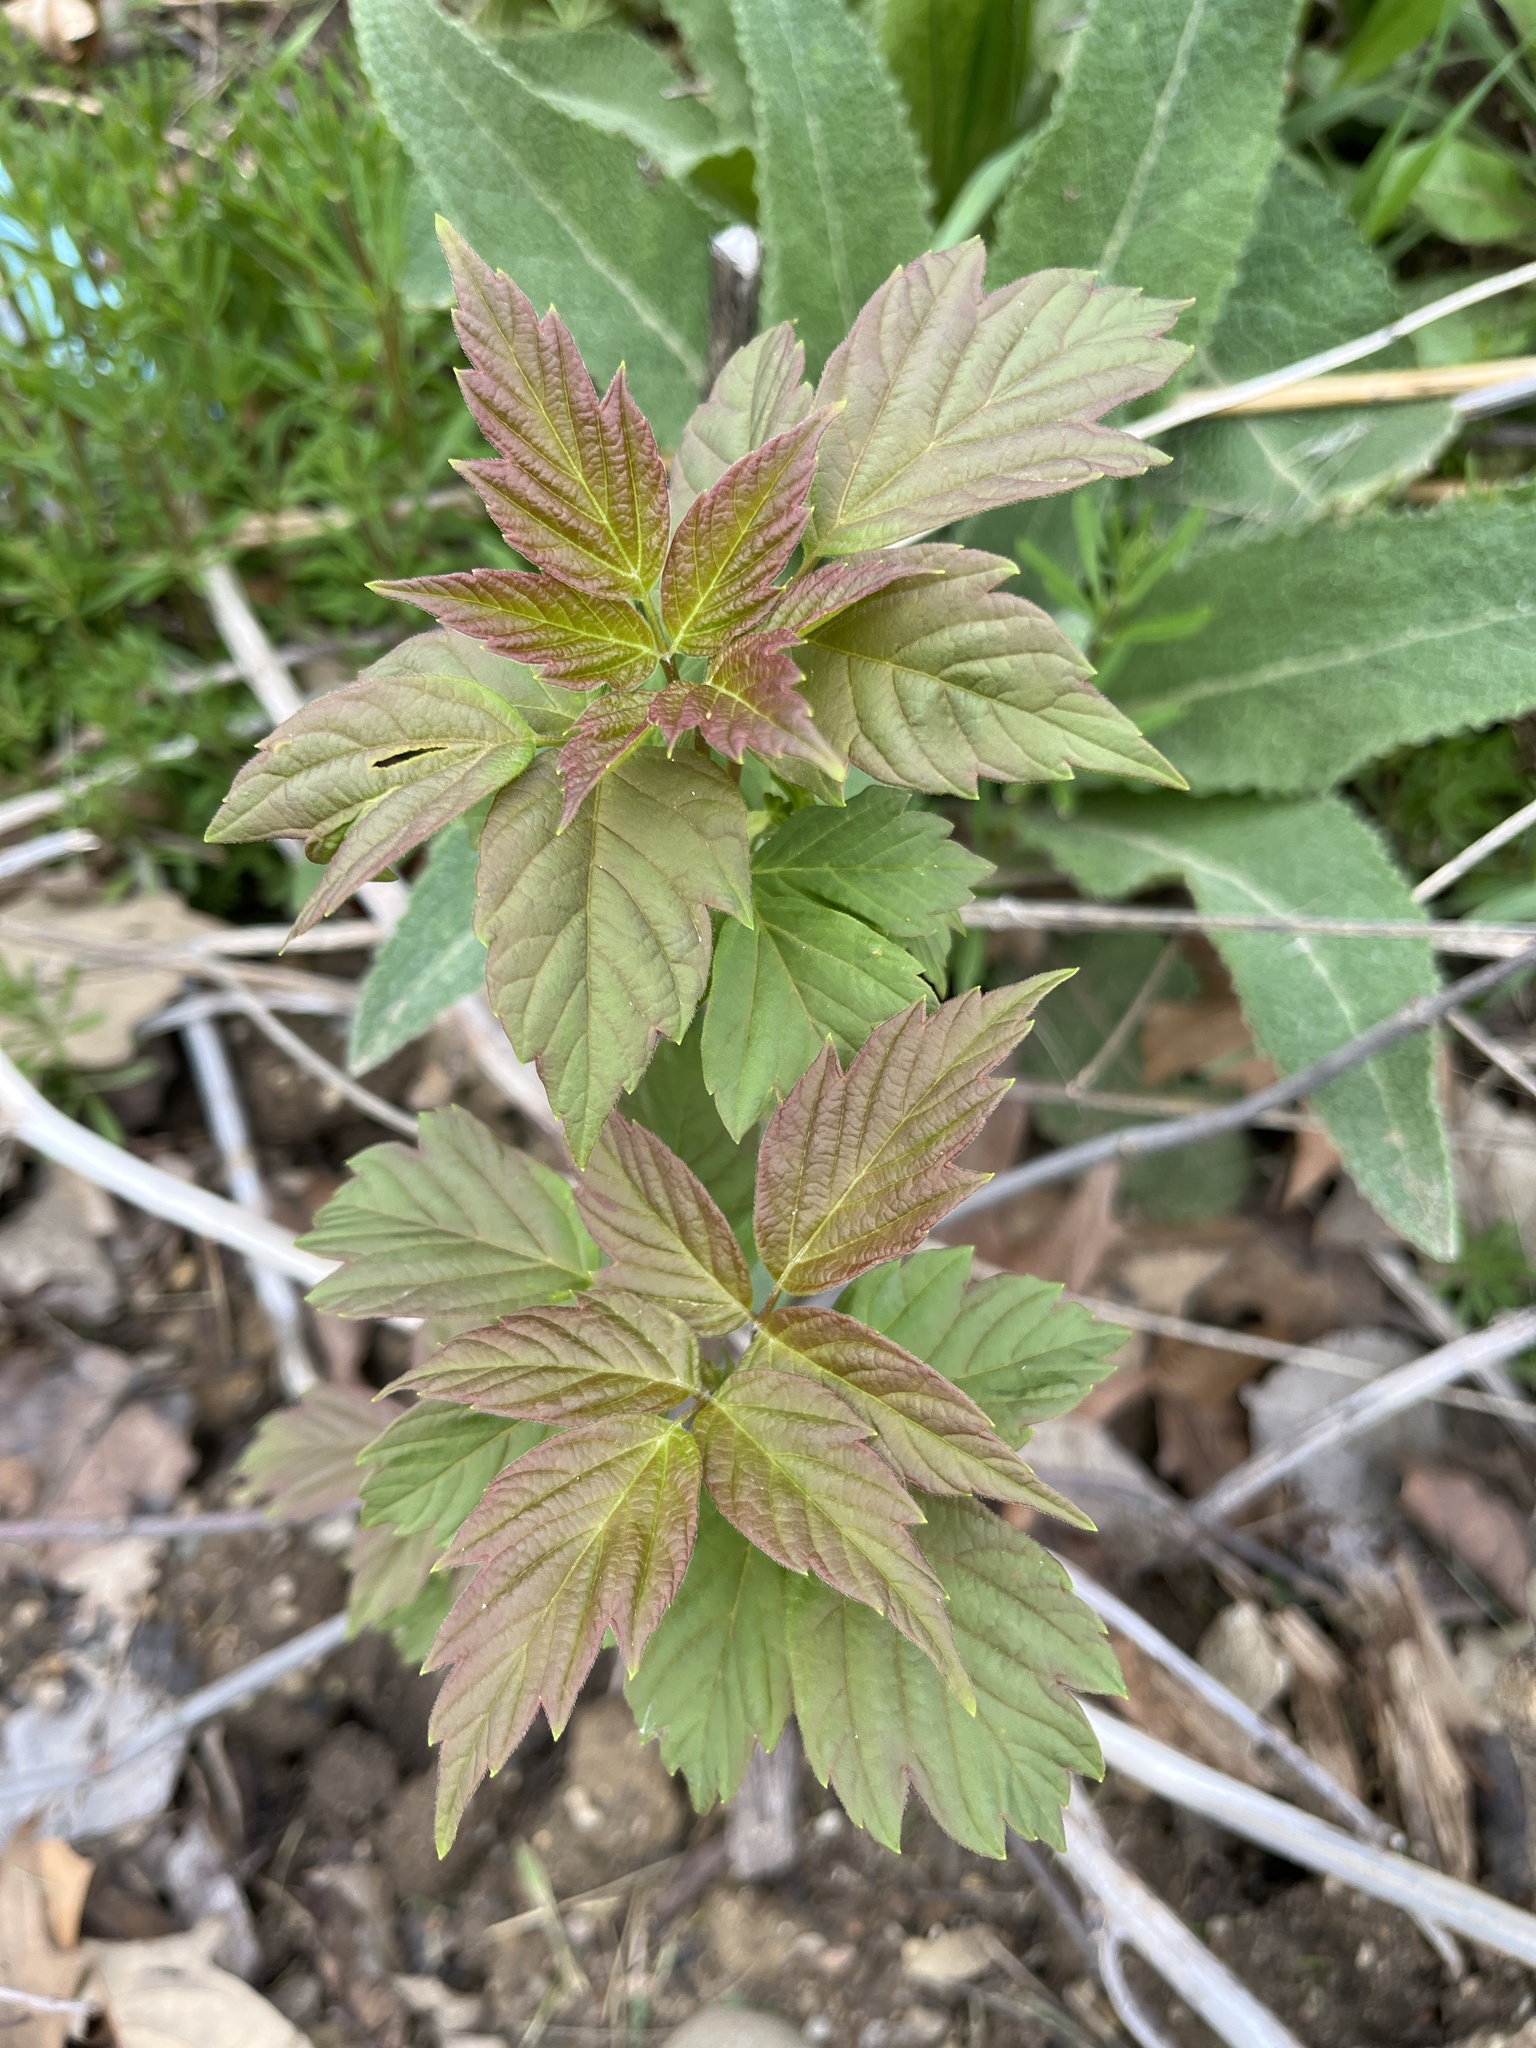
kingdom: Plantae
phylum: Tracheophyta
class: Magnoliopsida
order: Sapindales
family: Sapindaceae
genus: Acer
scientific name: Acer negundo
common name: Ashleaf maple
